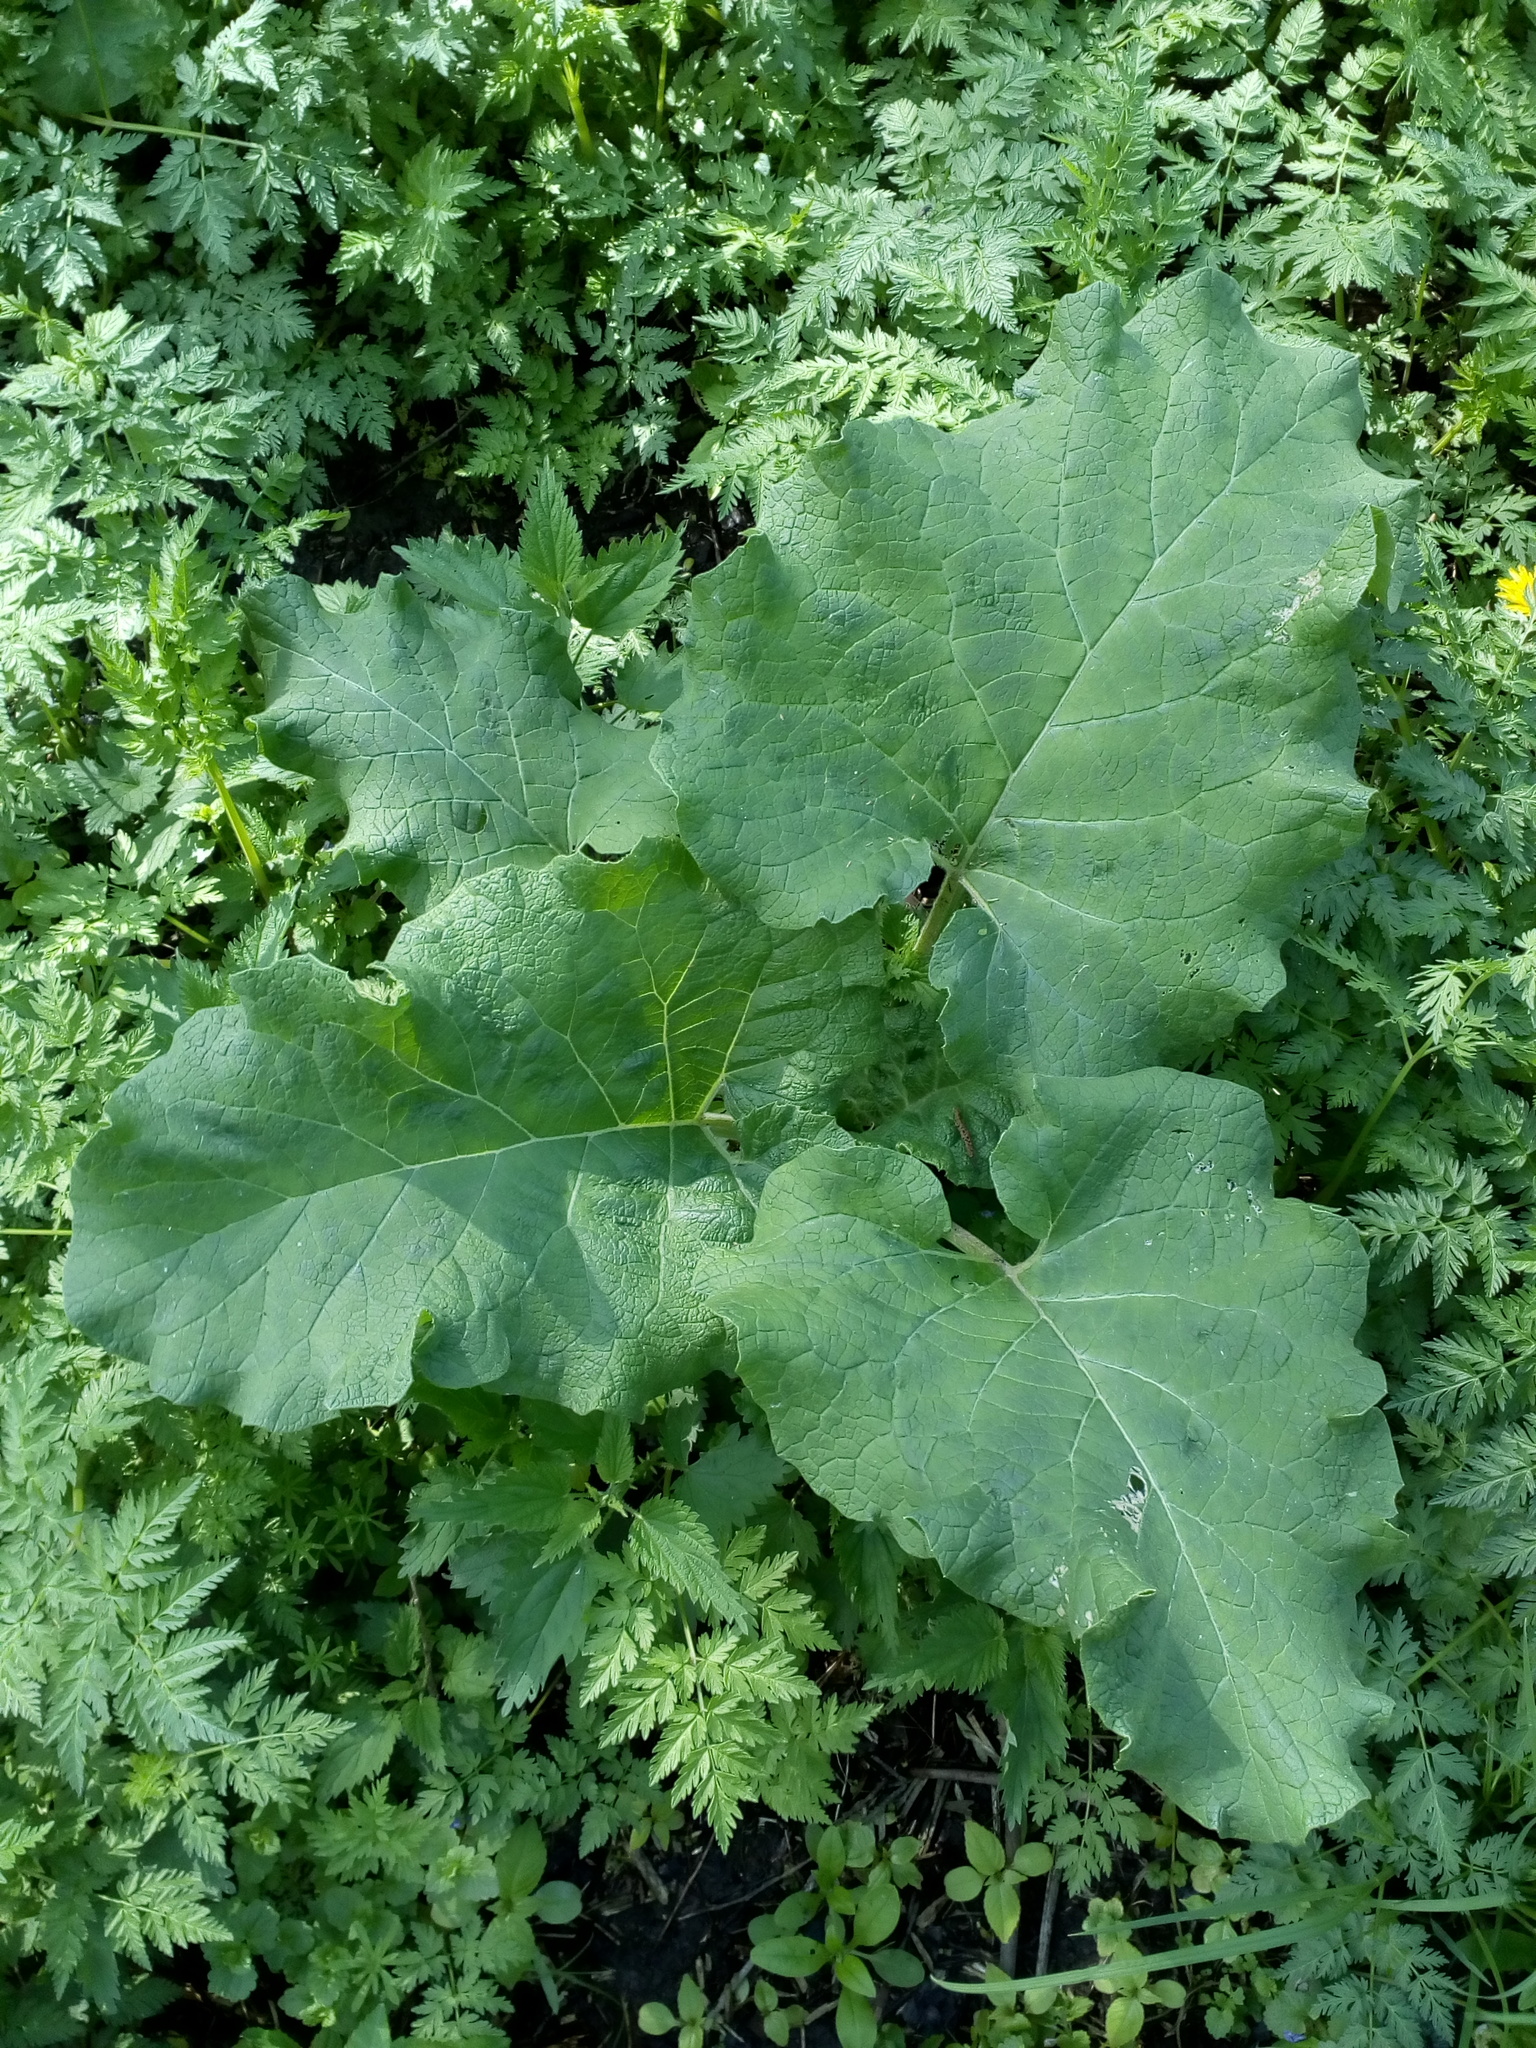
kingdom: Plantae
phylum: Tracheophyta
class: Magnoliopsida
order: Asterales
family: Asteraceae
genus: Arctium
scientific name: Arctium
